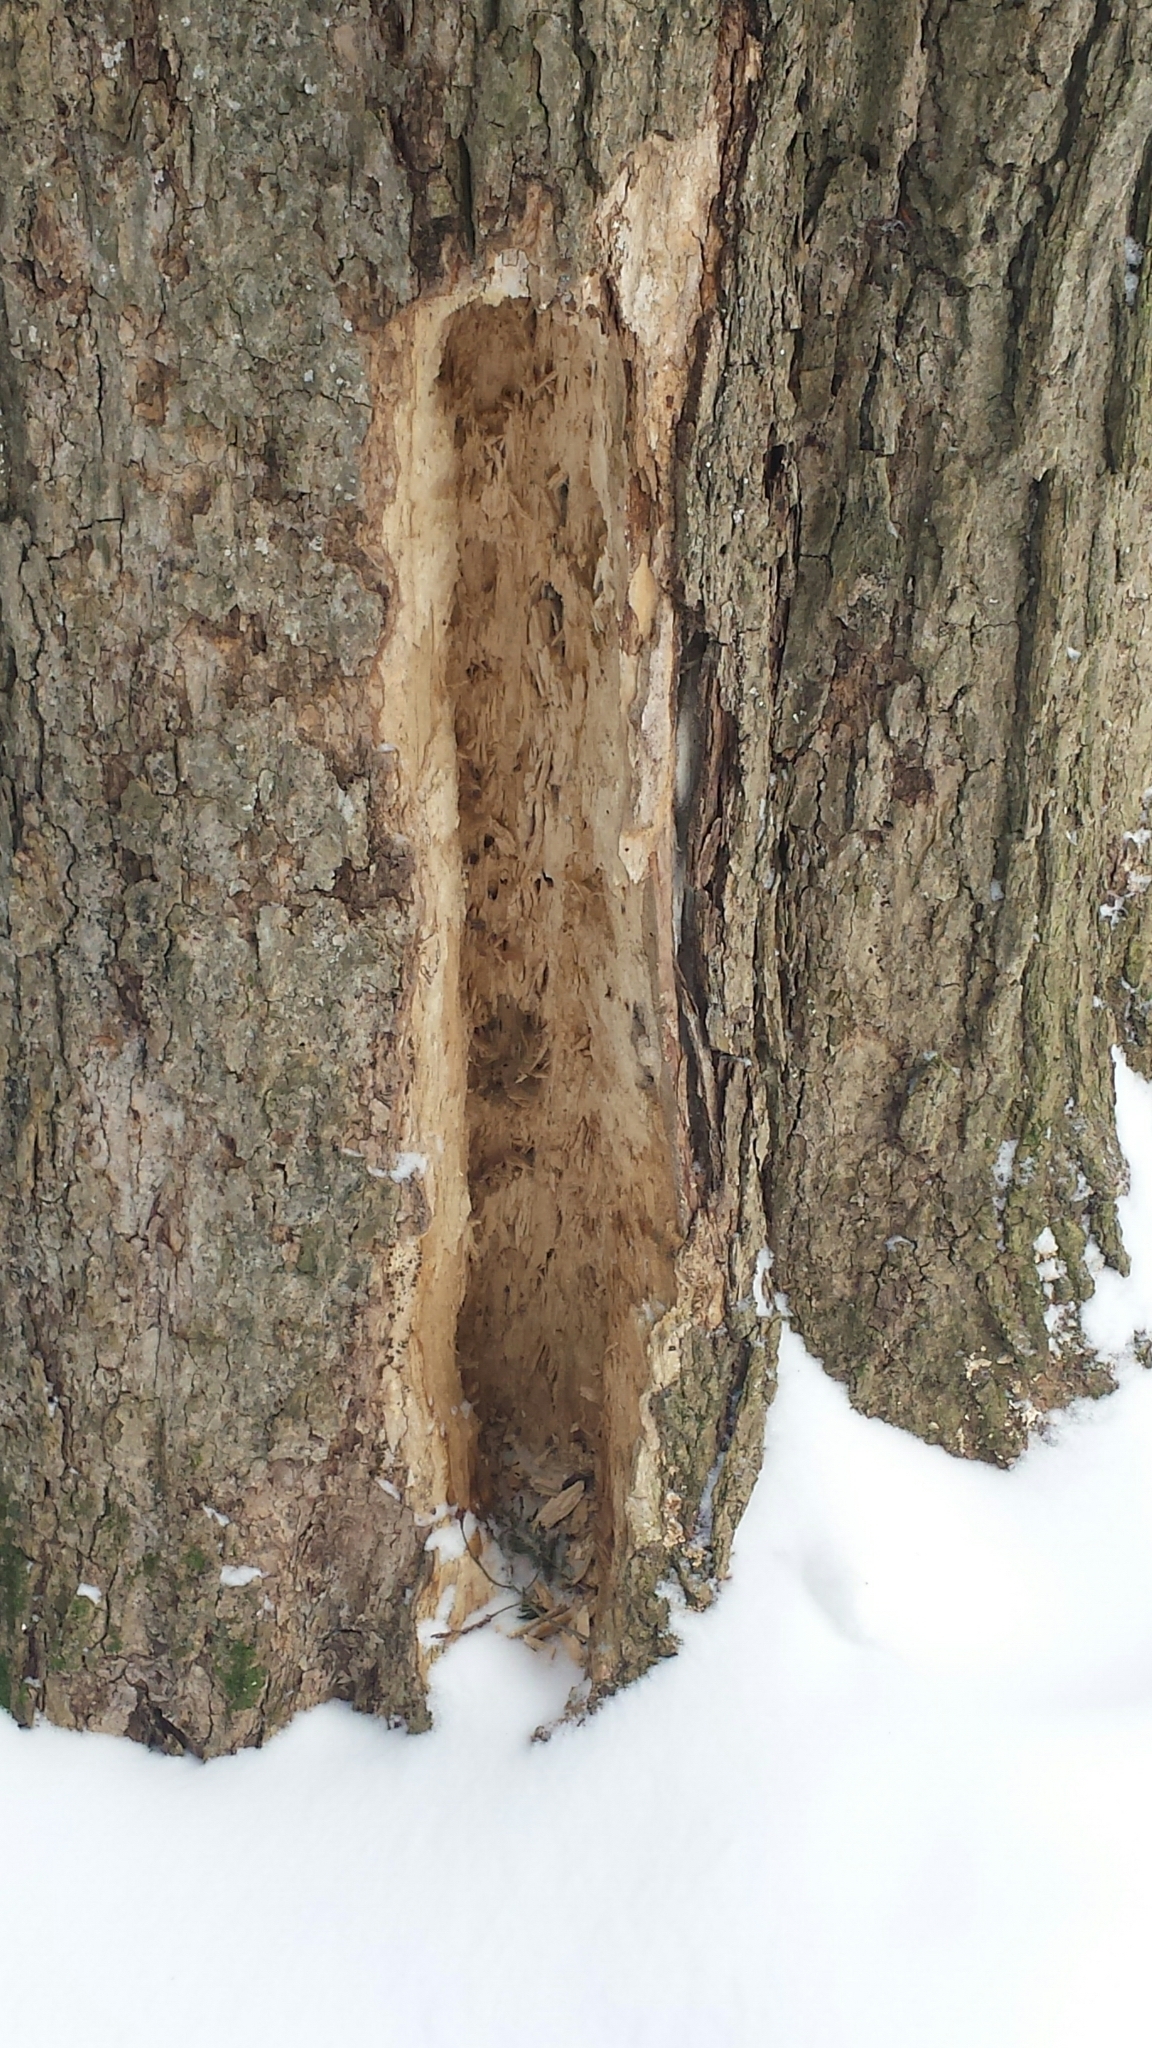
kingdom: Animalia
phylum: Chordata
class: Aves
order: Piciformes
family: Picidae
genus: Dryocopus
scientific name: Dryocopus pileatus
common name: Pileated woodpecker
